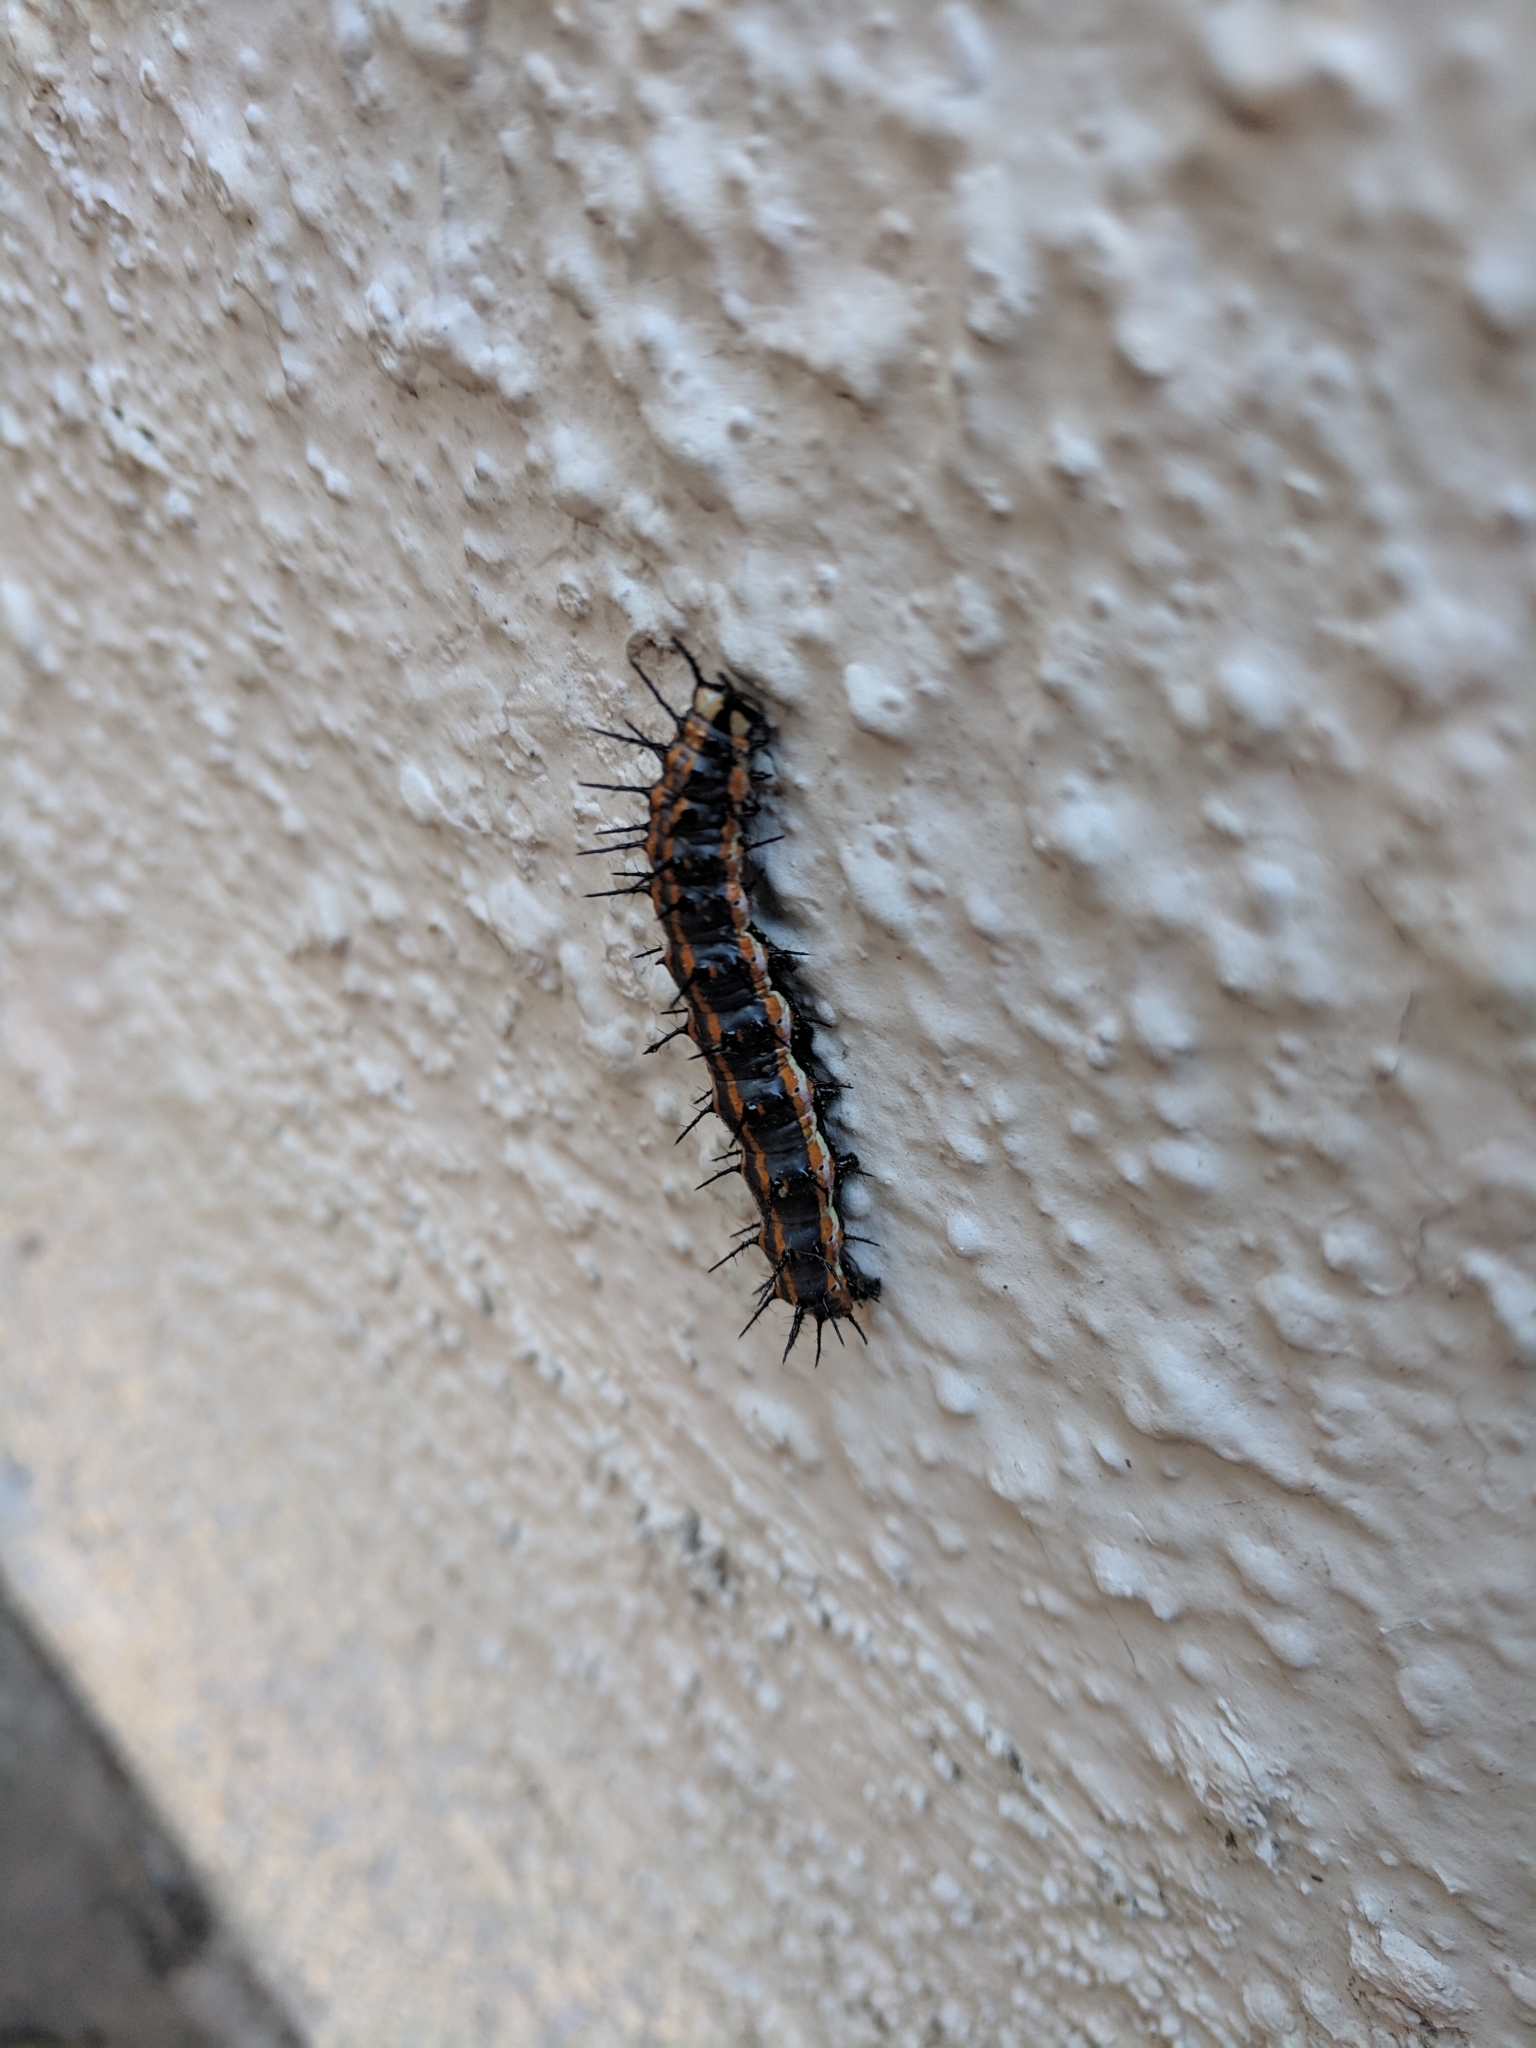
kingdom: Animalia
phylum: Arthropoda
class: Insecta
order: Lepidoptera
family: Nymphalidae
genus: Dione
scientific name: Dione vanillae
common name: Gulf fritillary
